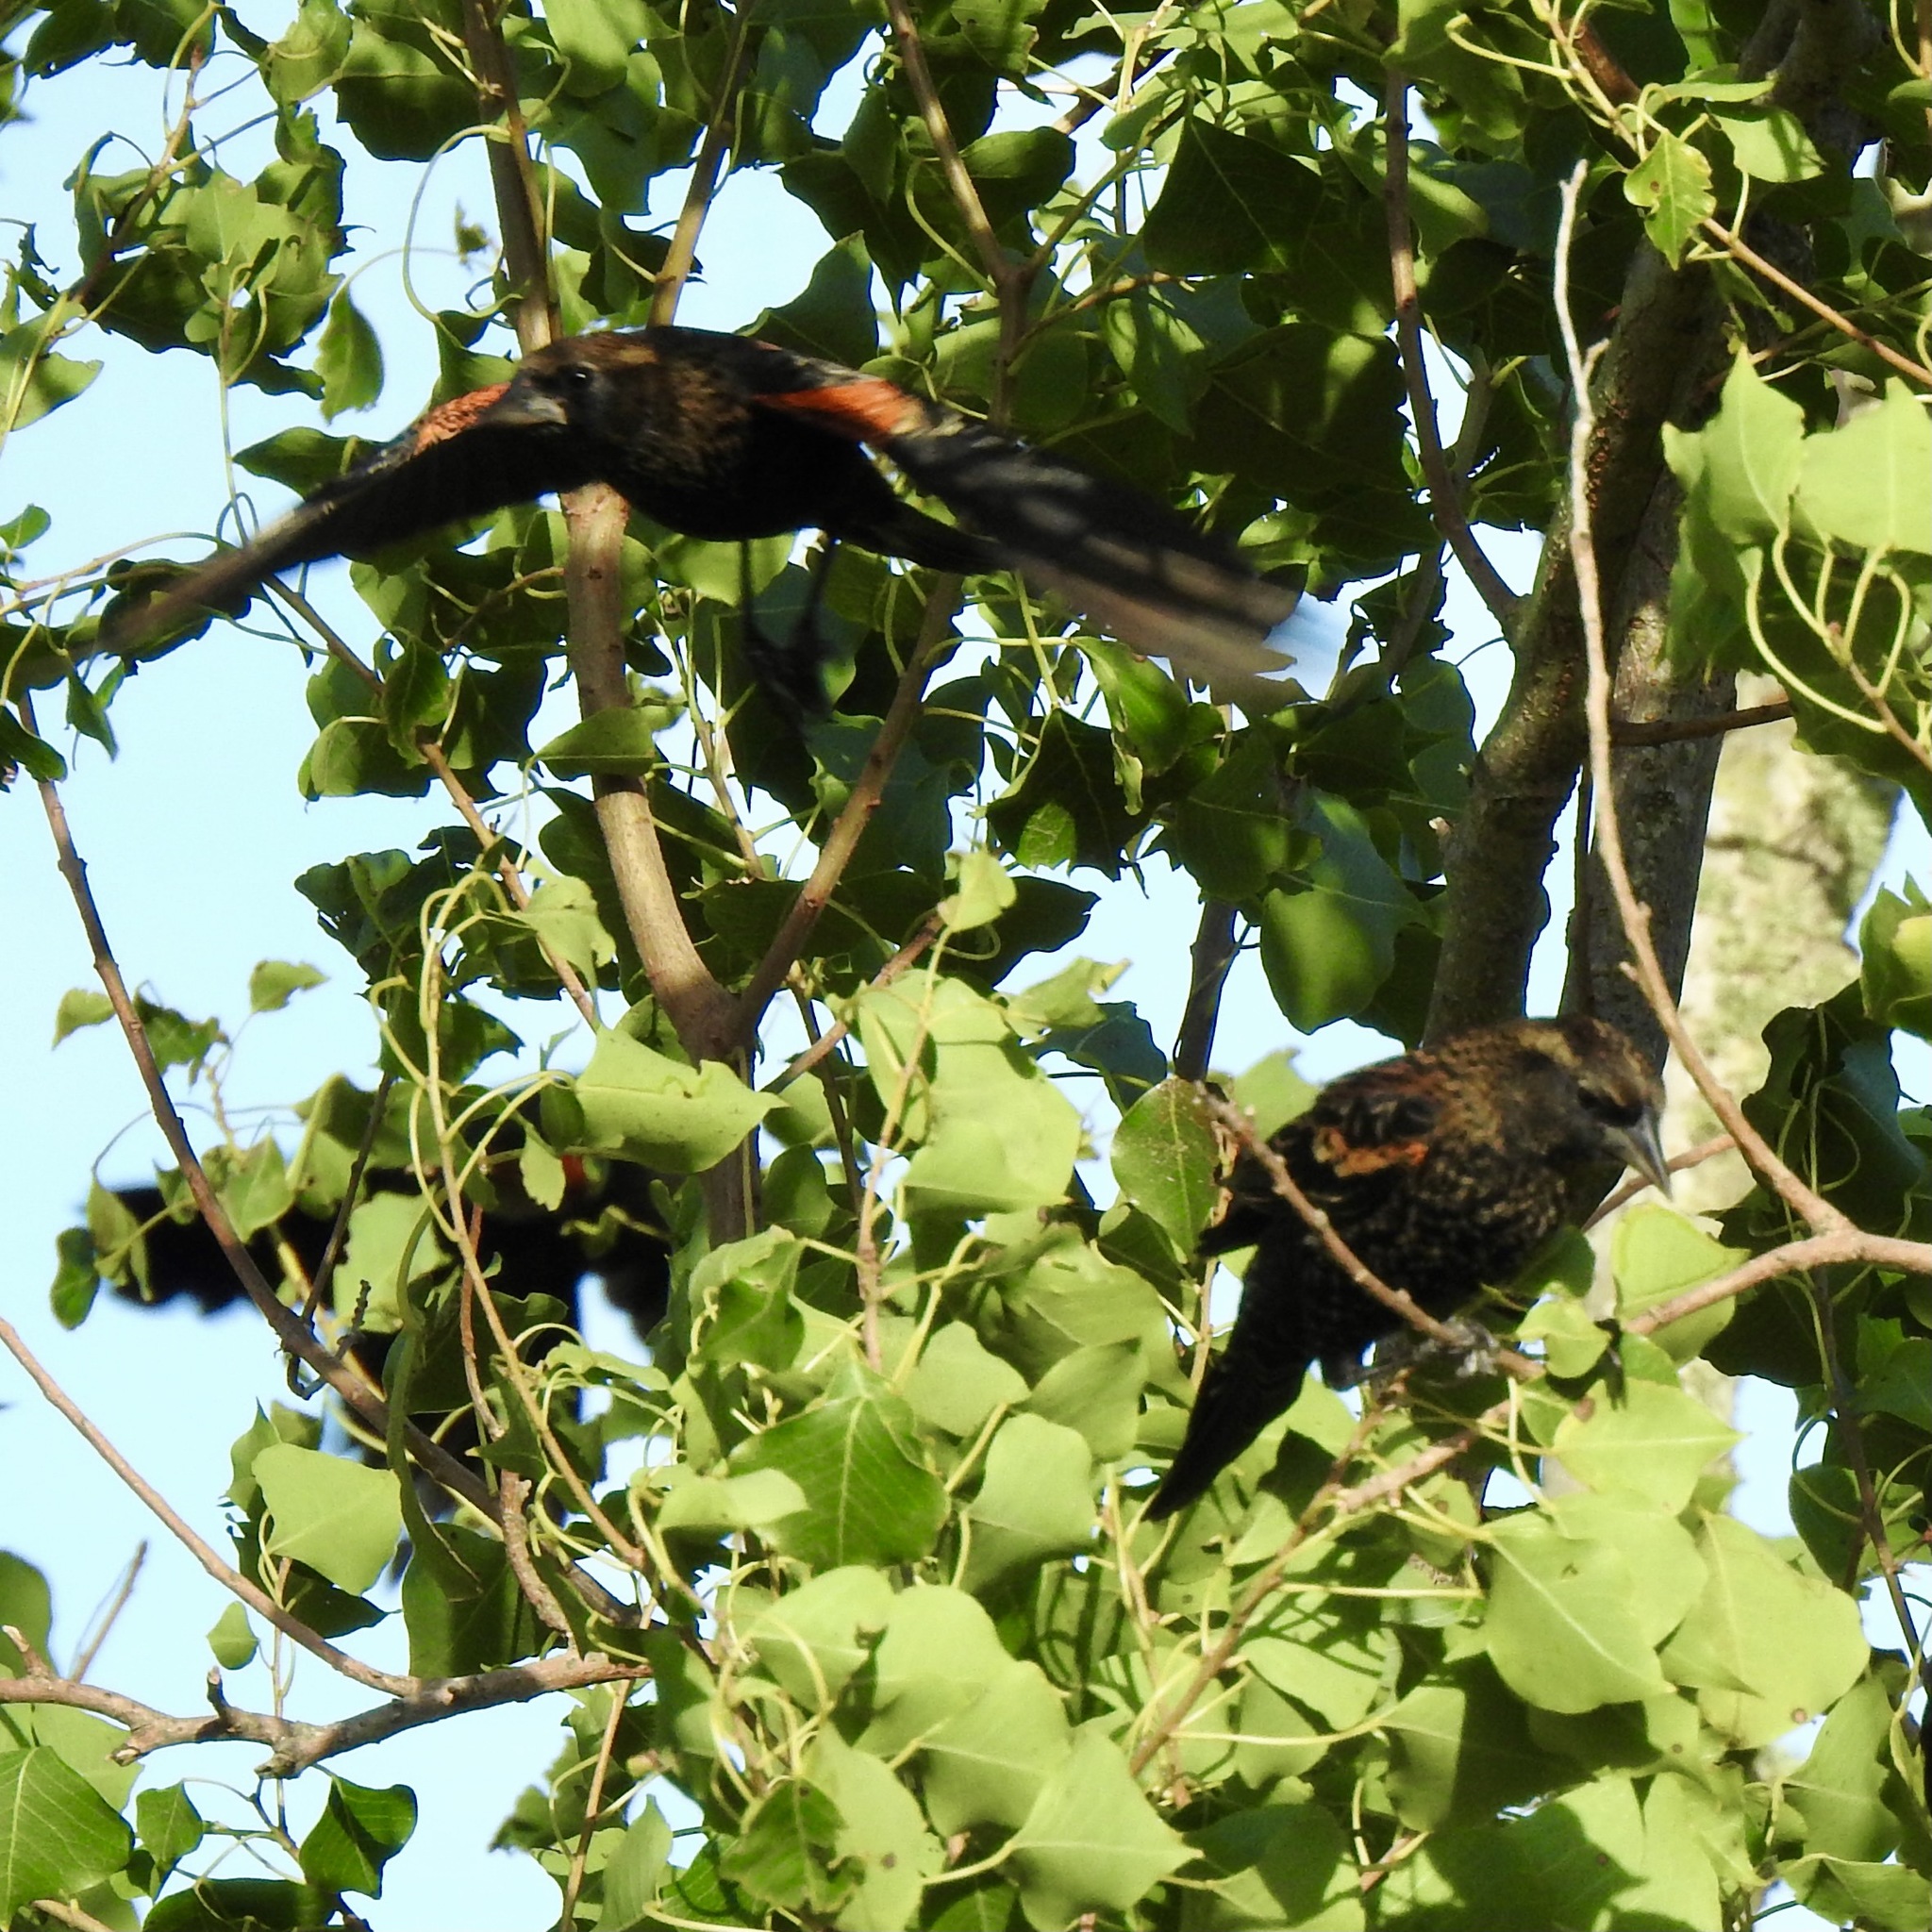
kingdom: Animalia
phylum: Chordata
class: Aves
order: Passeriformes
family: Icteridae
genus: Agelaius
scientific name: Agelaius phoeniceus
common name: Red-winged blackbird
